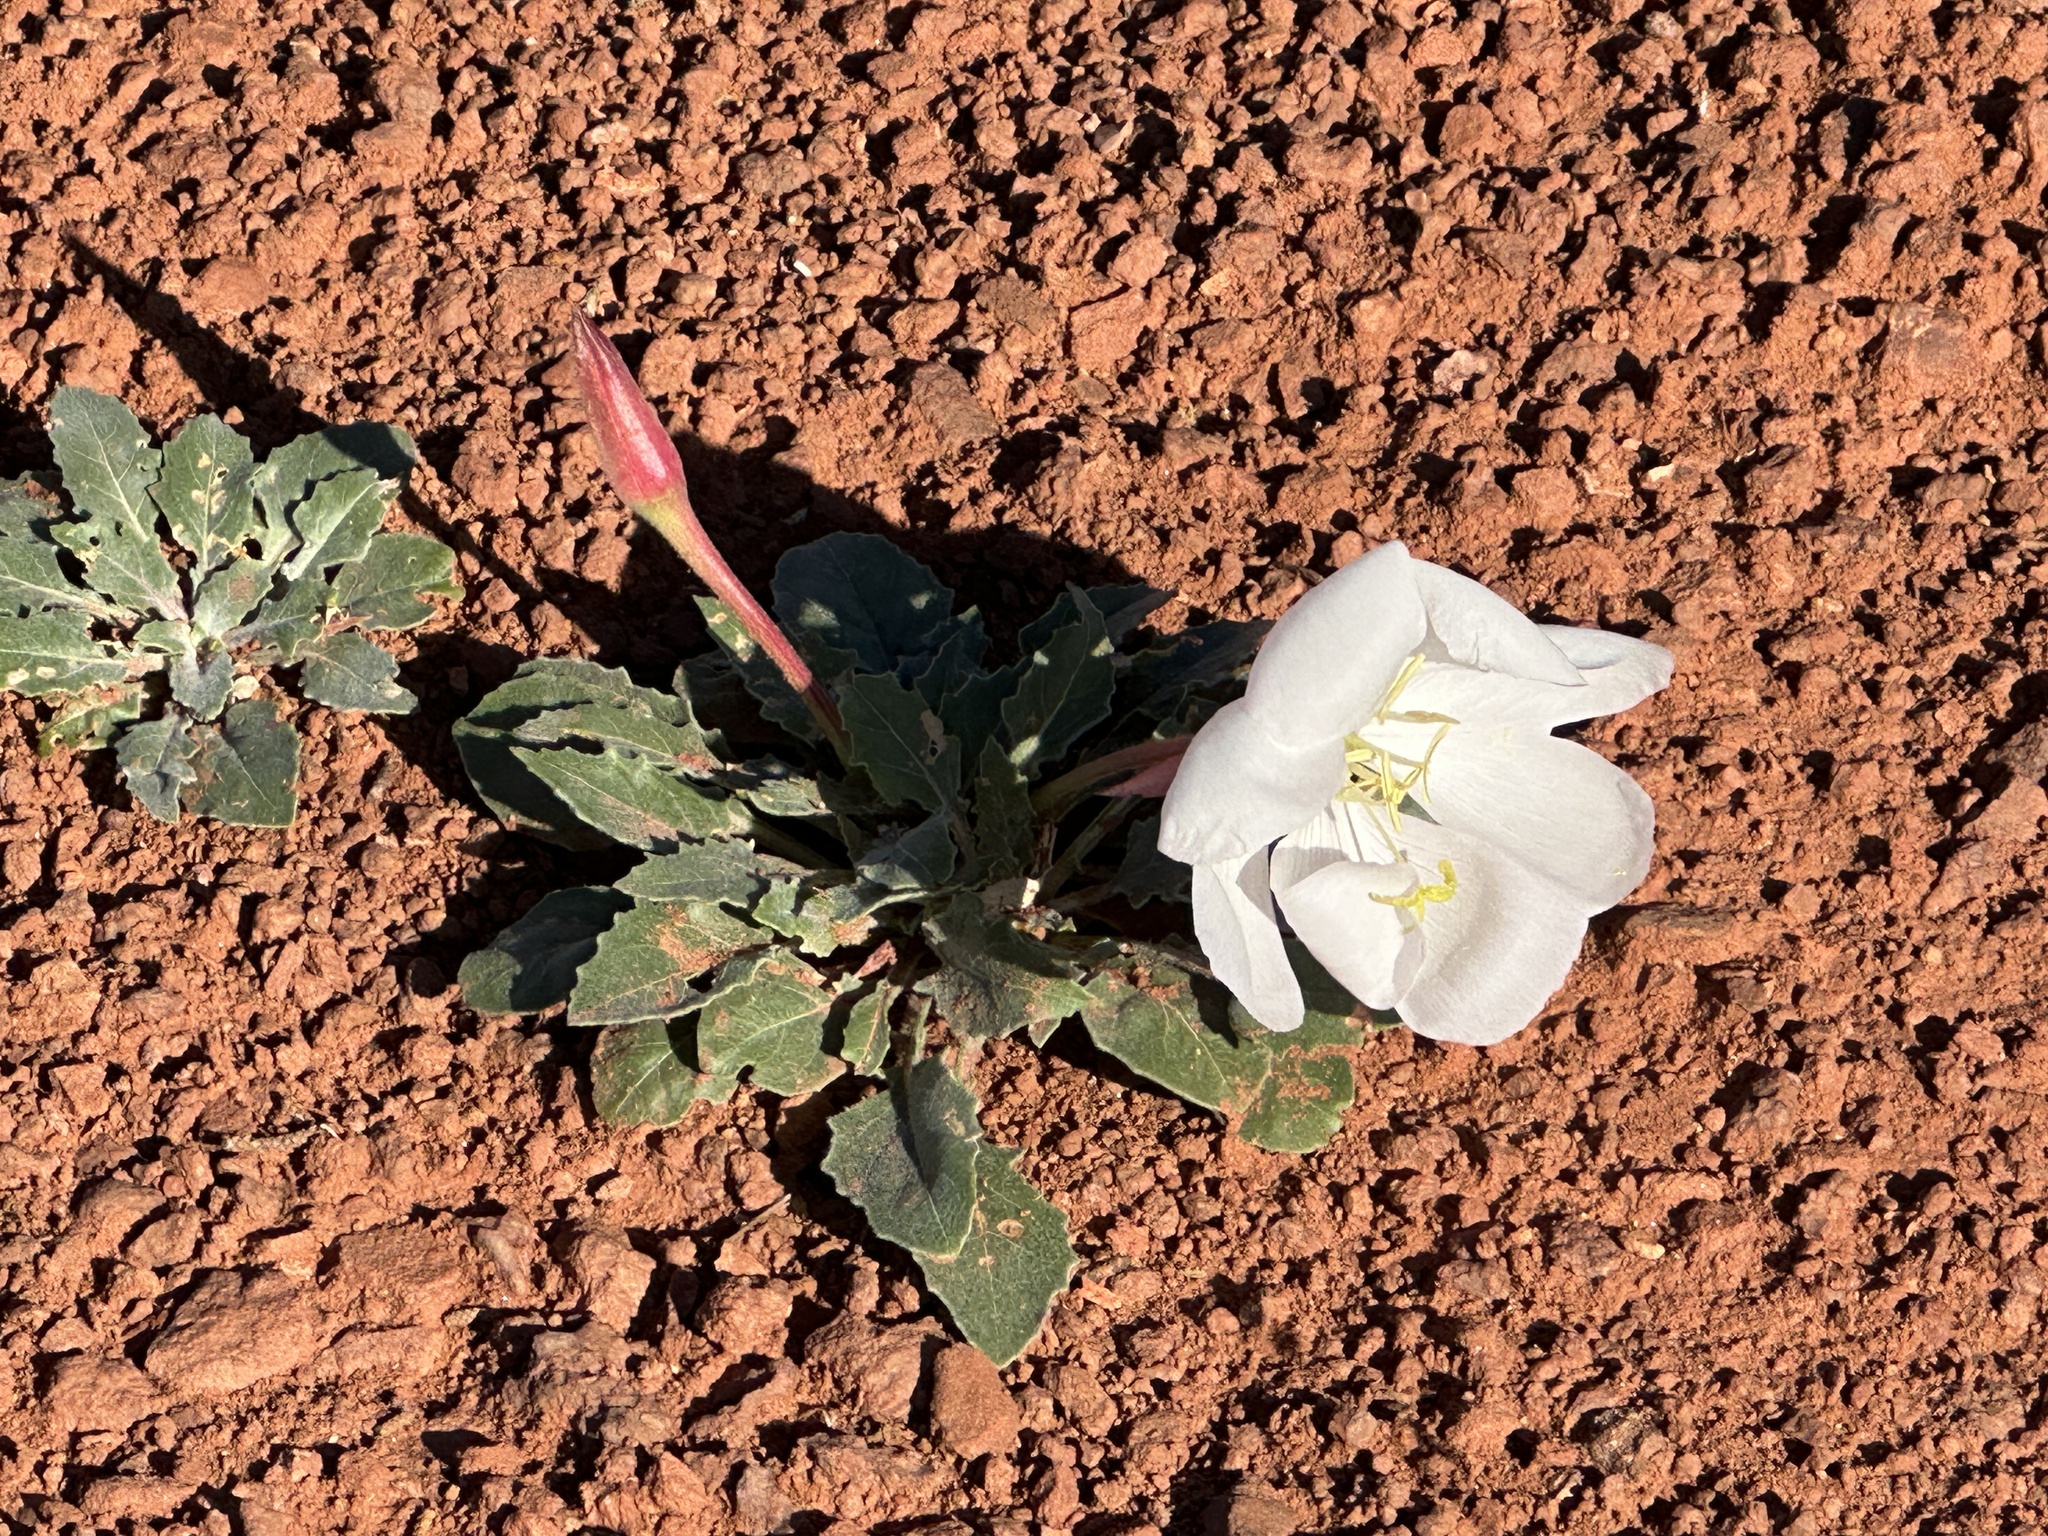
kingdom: Plantae
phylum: Tracheophyta
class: Magnoliopsida
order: Myrtales
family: Onagraceae
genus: Oenothera
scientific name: Oenothera cespitosa
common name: Tufted evening-primrose
